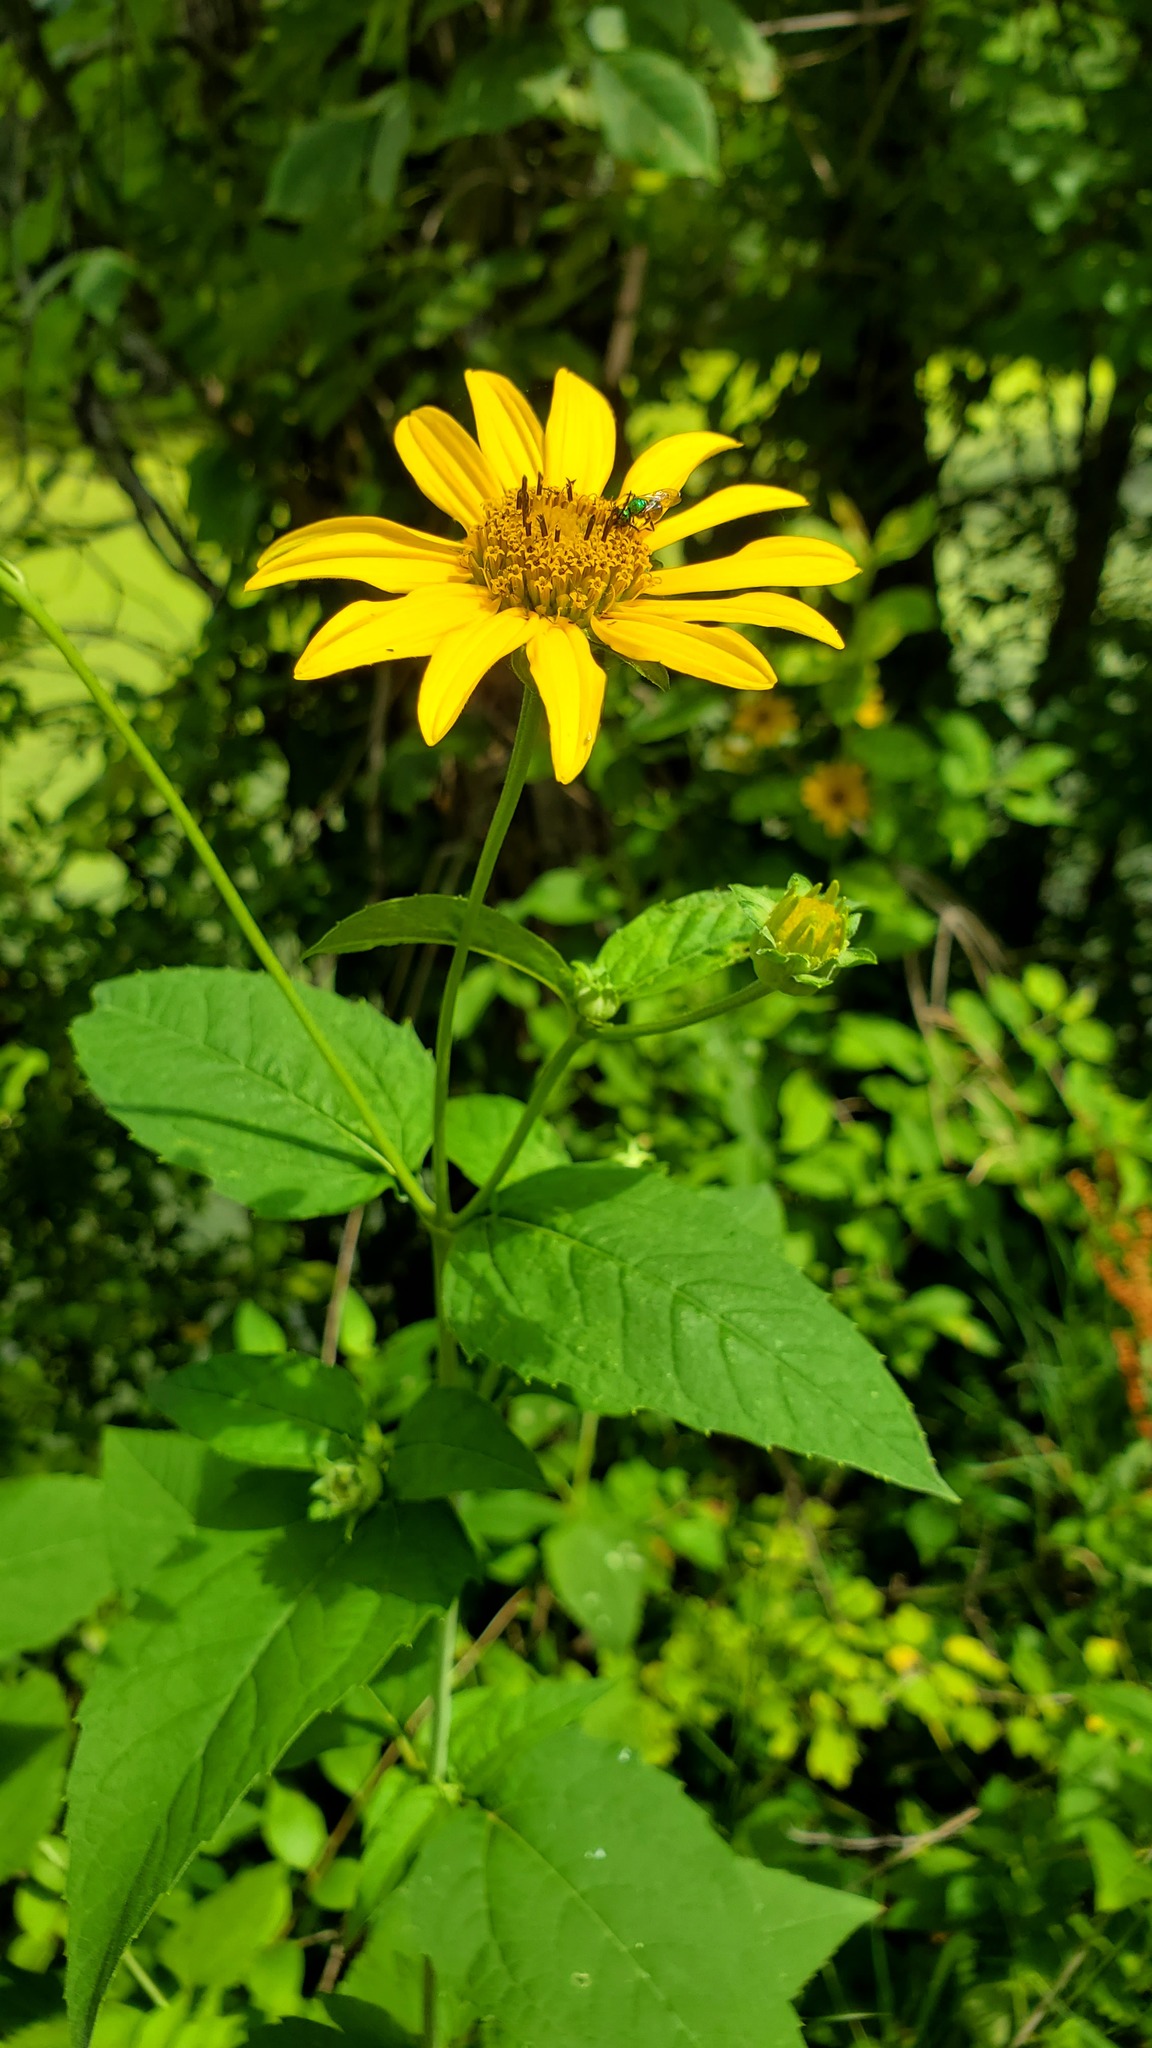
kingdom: Plantae
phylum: Tracheophyta
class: Magnoliopsida
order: Asterales
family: Asteraceae
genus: Heliopsis
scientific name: Heliopsis helianthoides
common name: False sunflower
